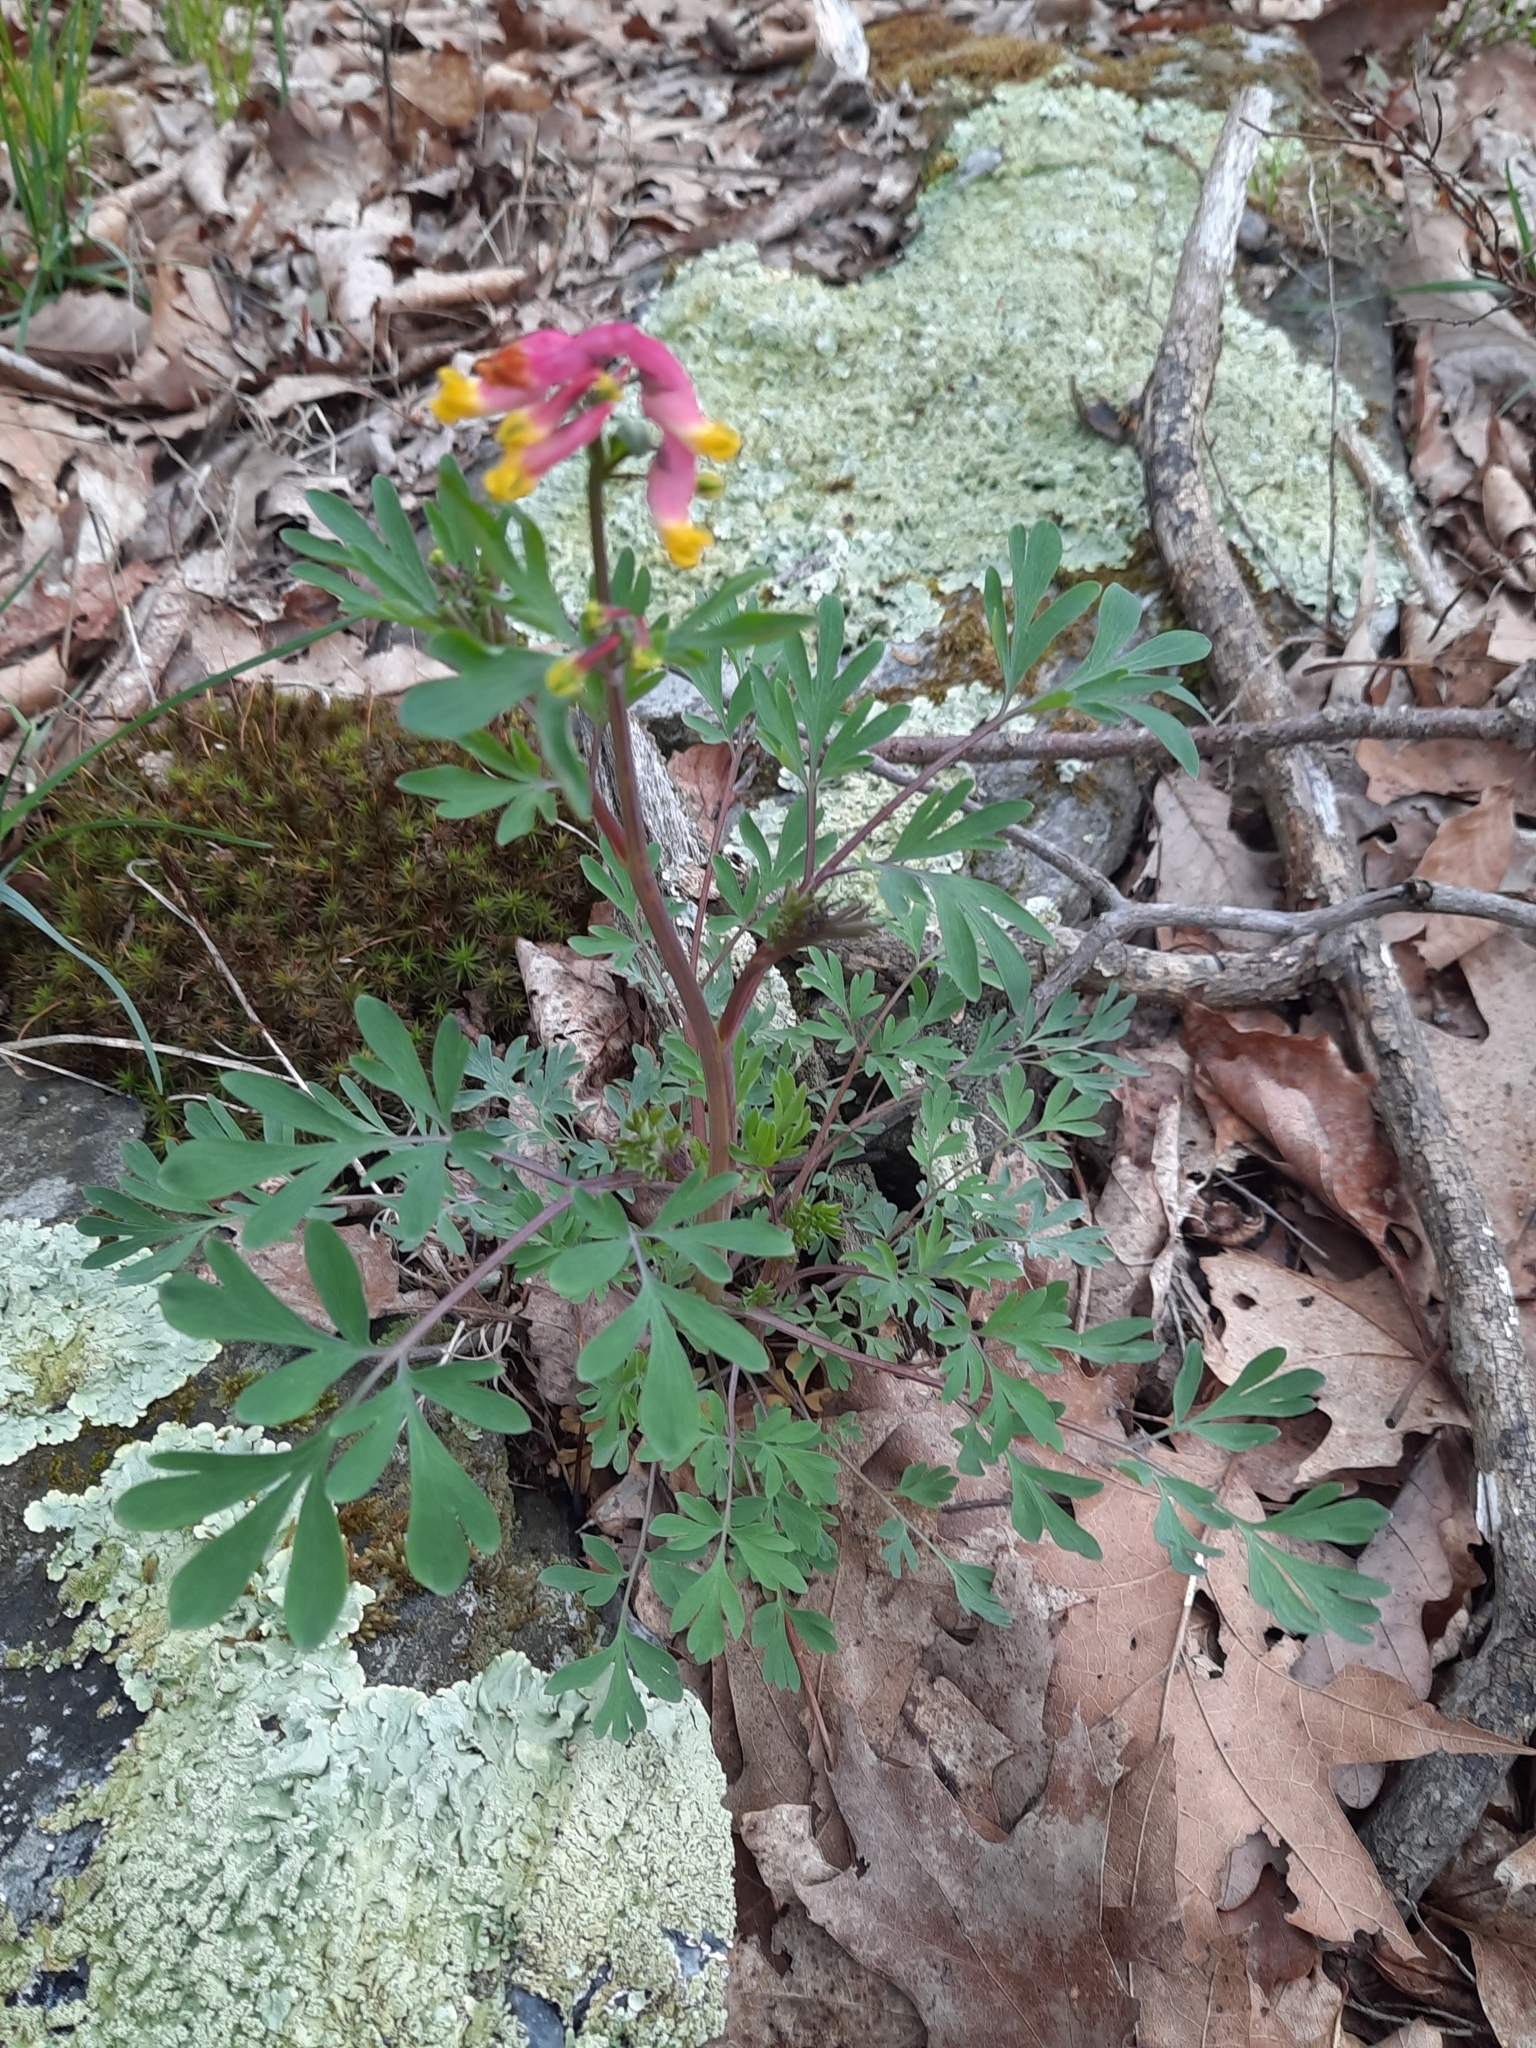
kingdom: Plantae
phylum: Tracheophyta
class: Magnoliopsida
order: Ranunculales
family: Papaveraceae
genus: Capnoides
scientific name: Capnoides sempervirens
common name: Rock harlequin
